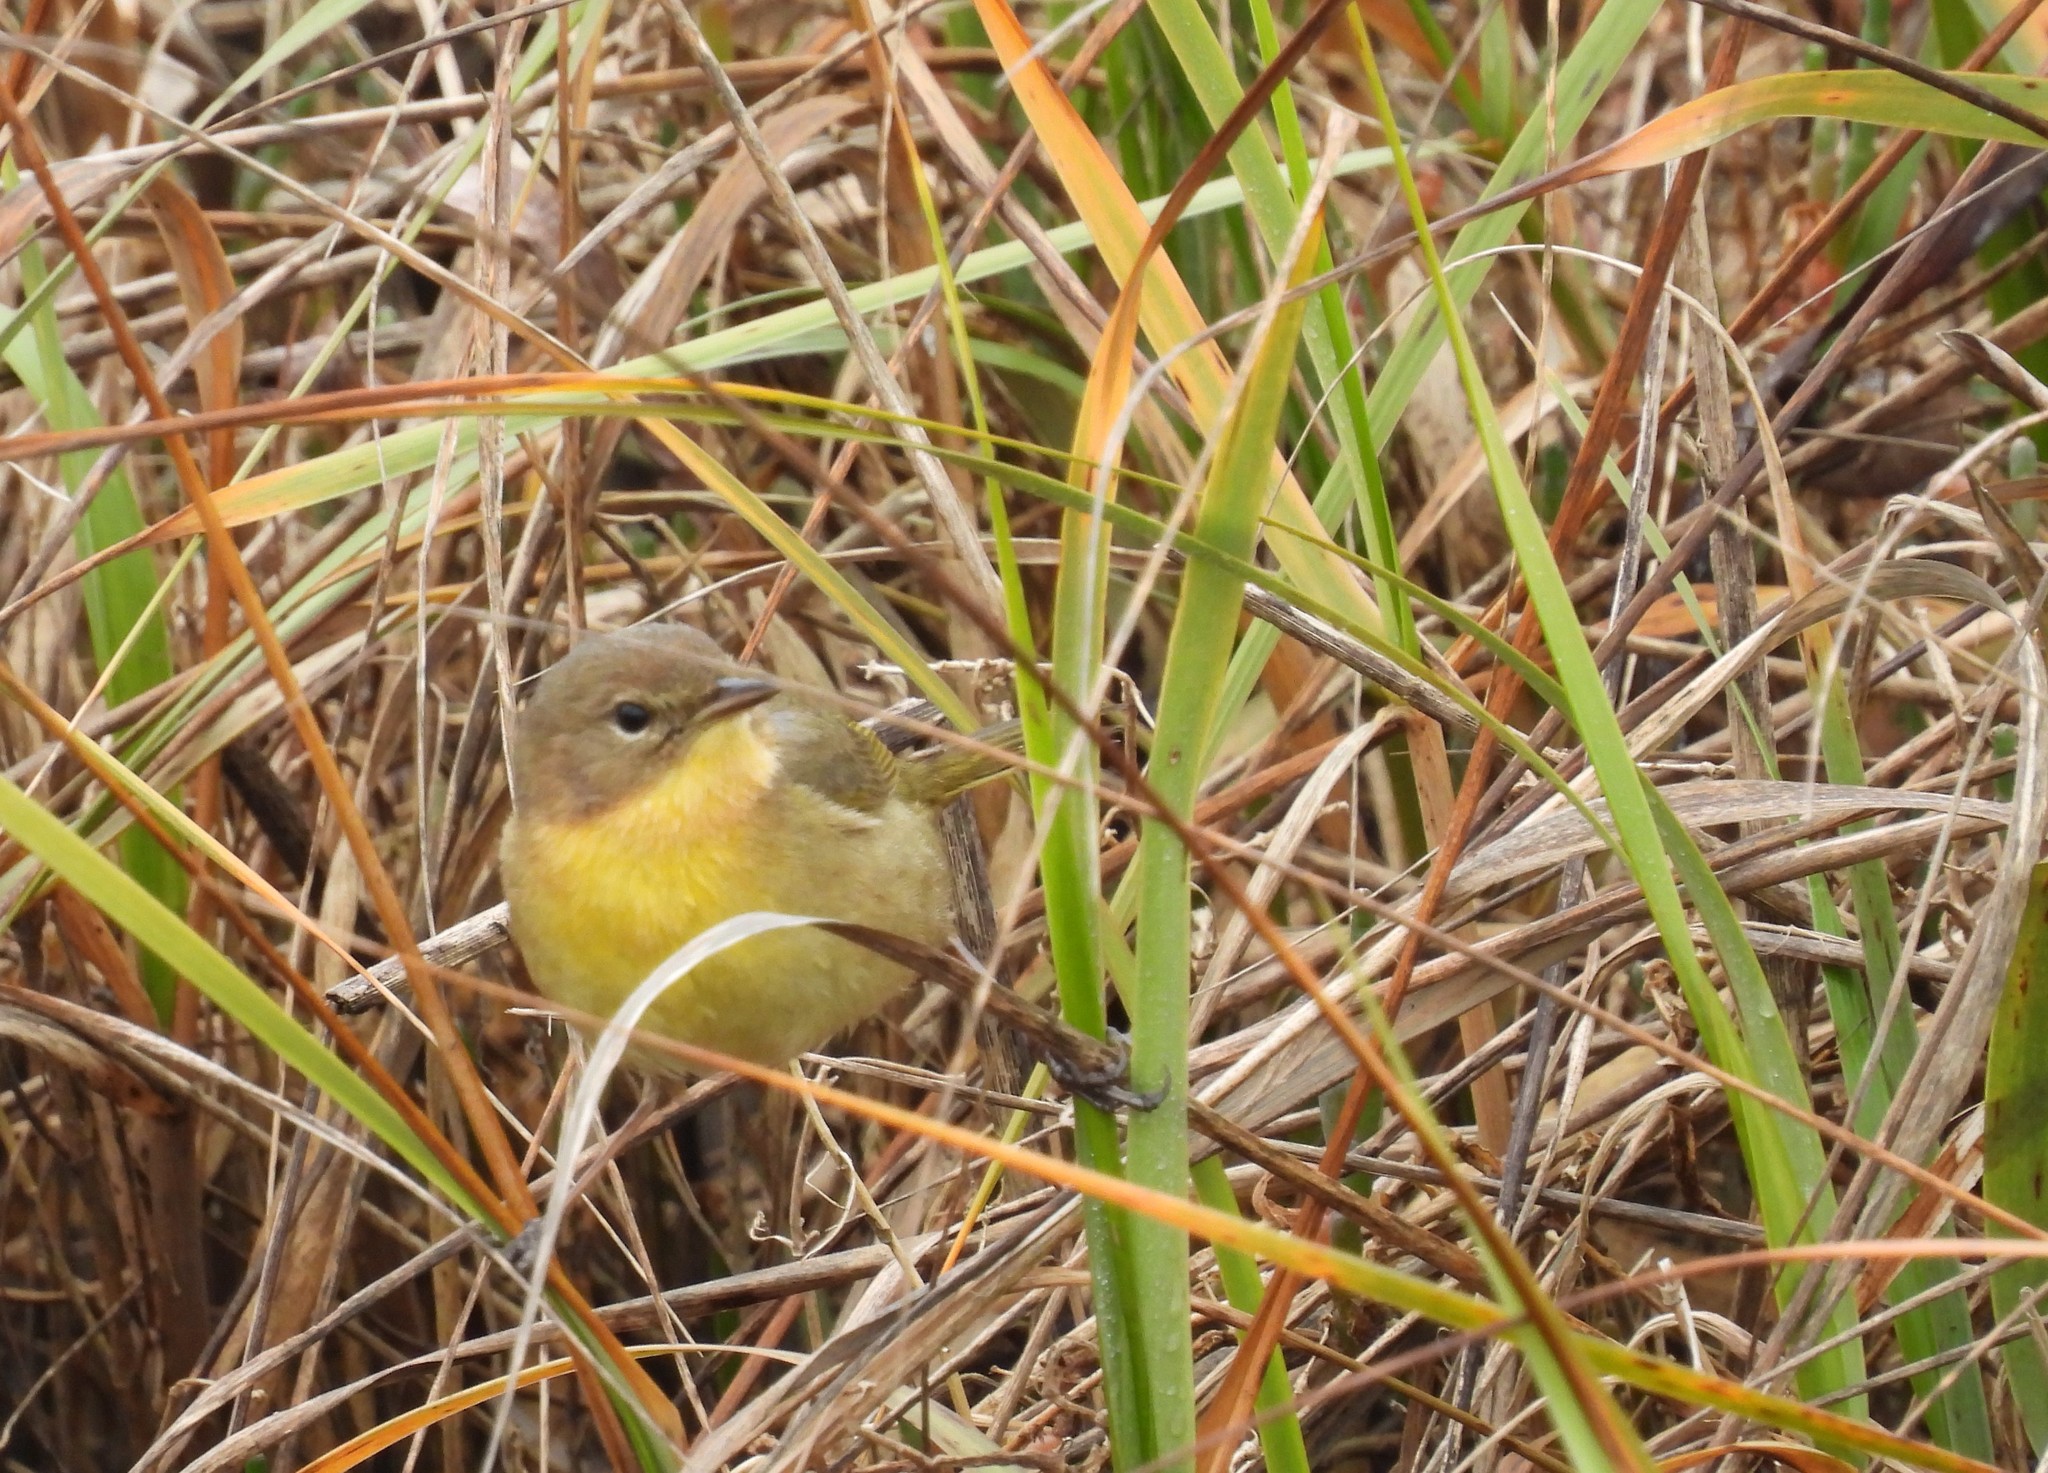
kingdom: Animalia
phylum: Chordata
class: Aves
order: Passeriformes
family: Parulidae
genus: Geothlypis
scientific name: Geothlypis trichas
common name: Common yellowthroat
